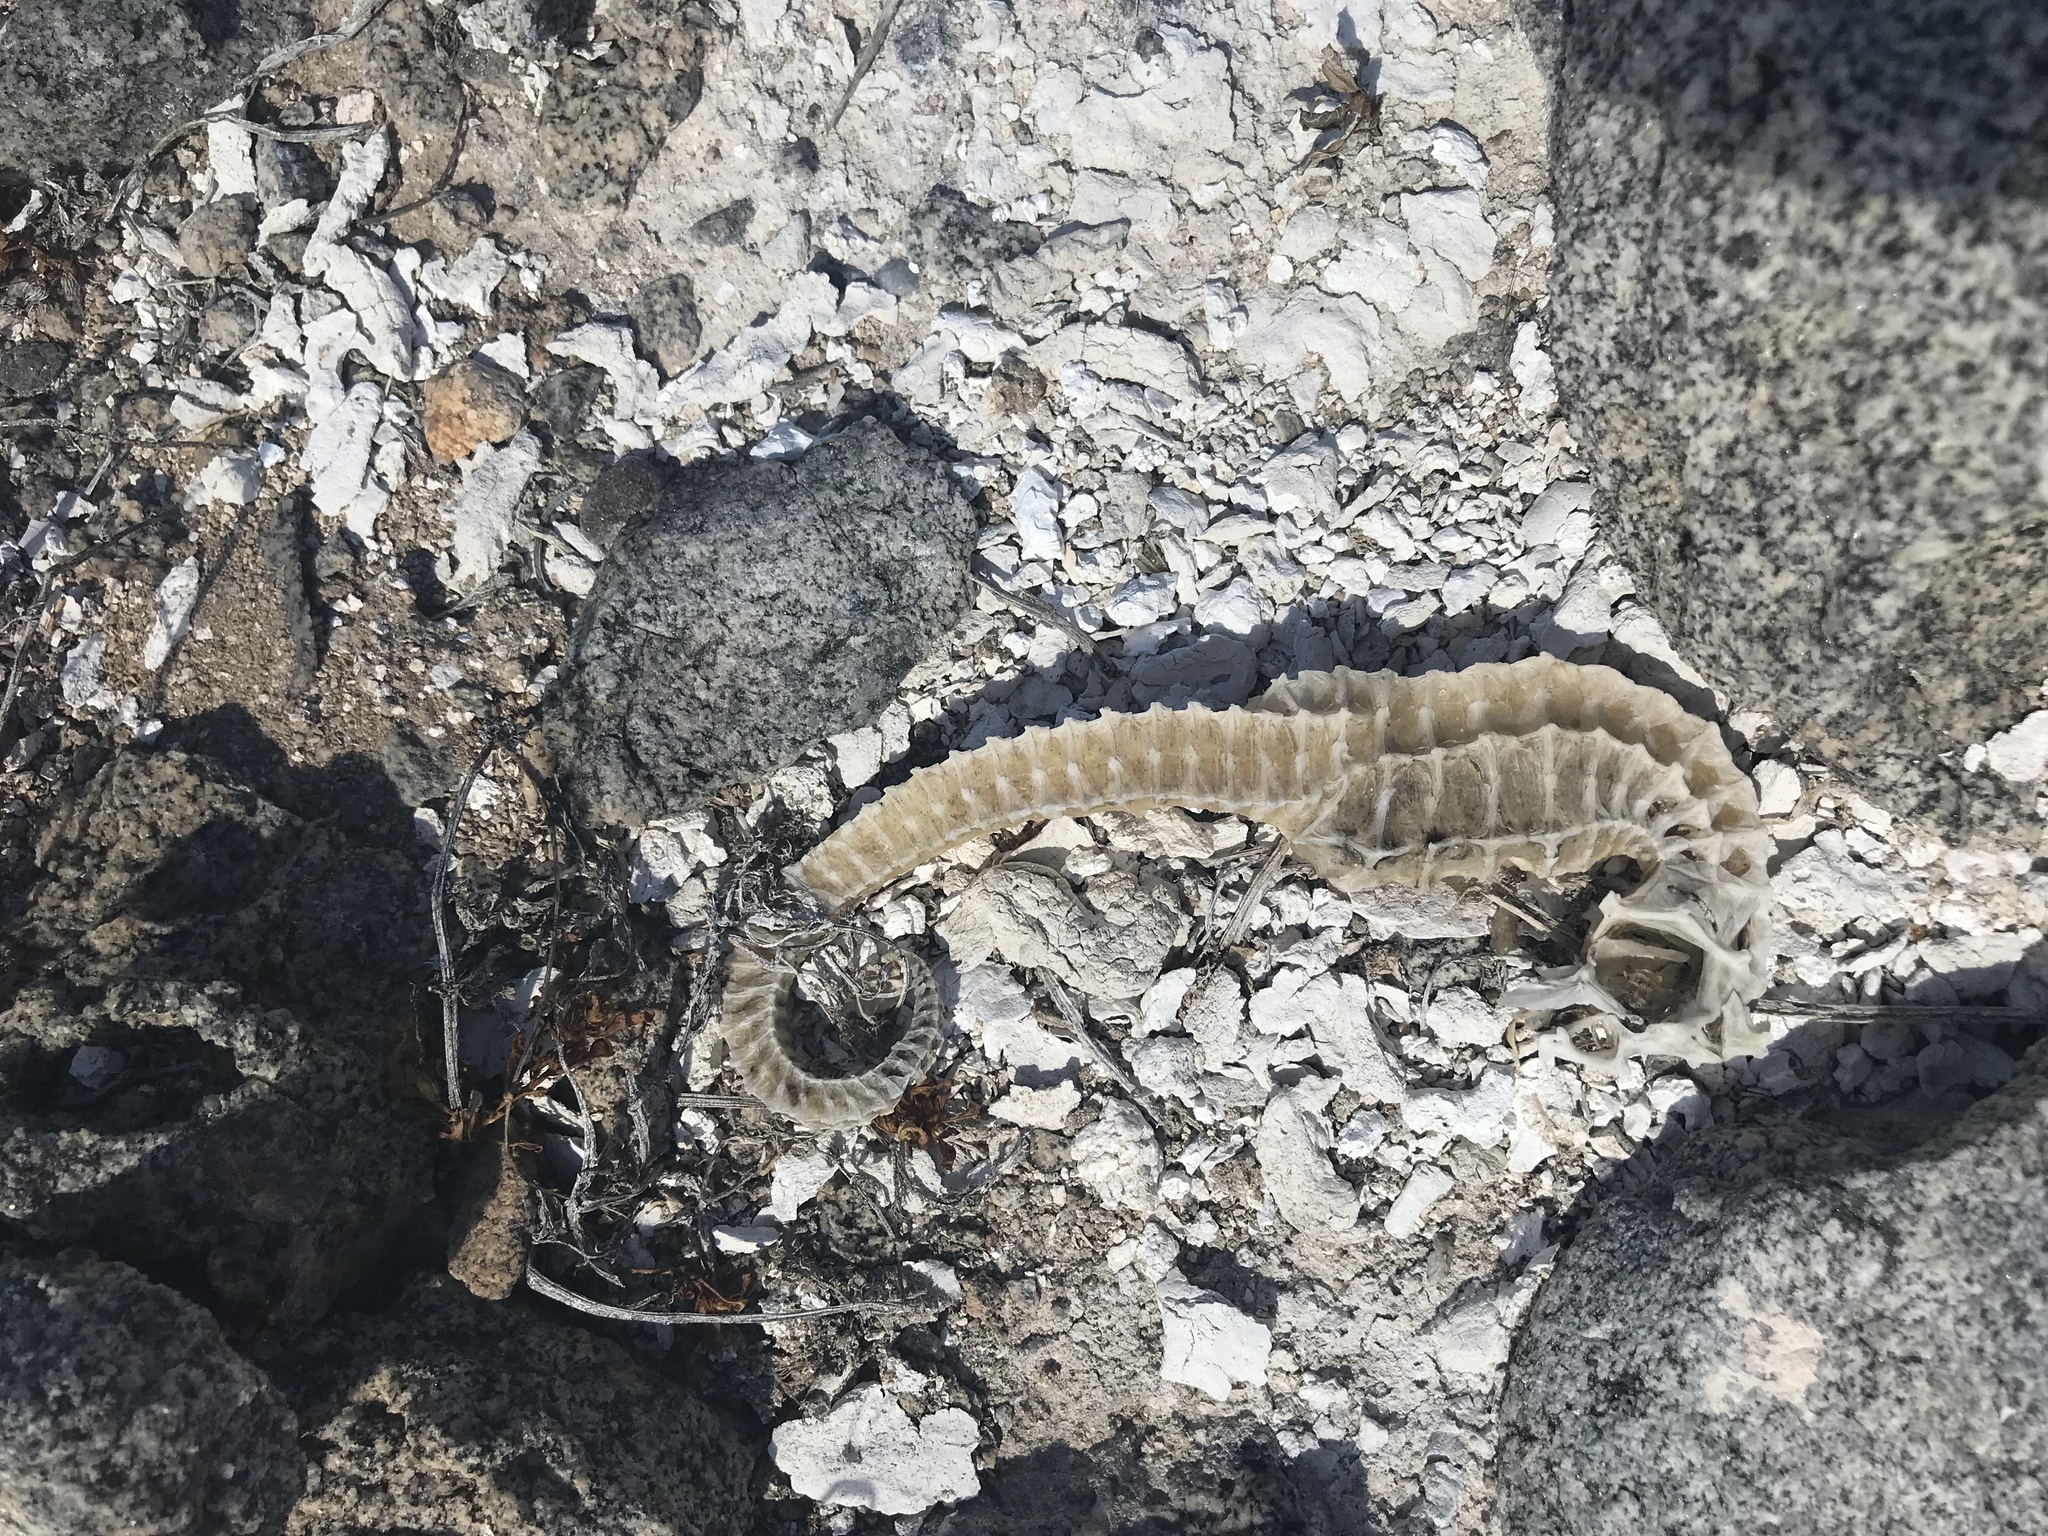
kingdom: Animalia
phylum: Chordata
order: Syngnathiformes
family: Syngnathidae
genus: Hippocampus
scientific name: Hippocampus ingens
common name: Giant seahorse
